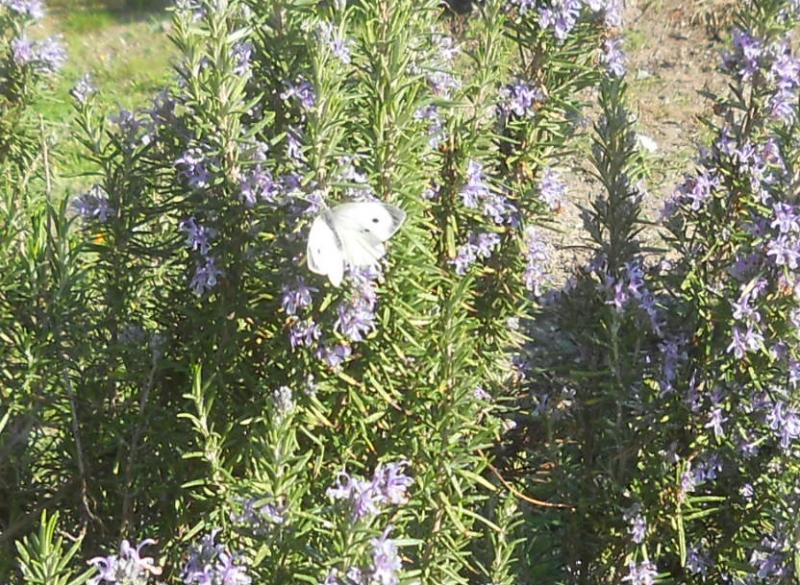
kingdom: Plantae
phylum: Tracheophyta
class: Magnoliopsida
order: Lamiales
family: Lamiaceae
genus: Salvia
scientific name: Salvia rosmarinus
